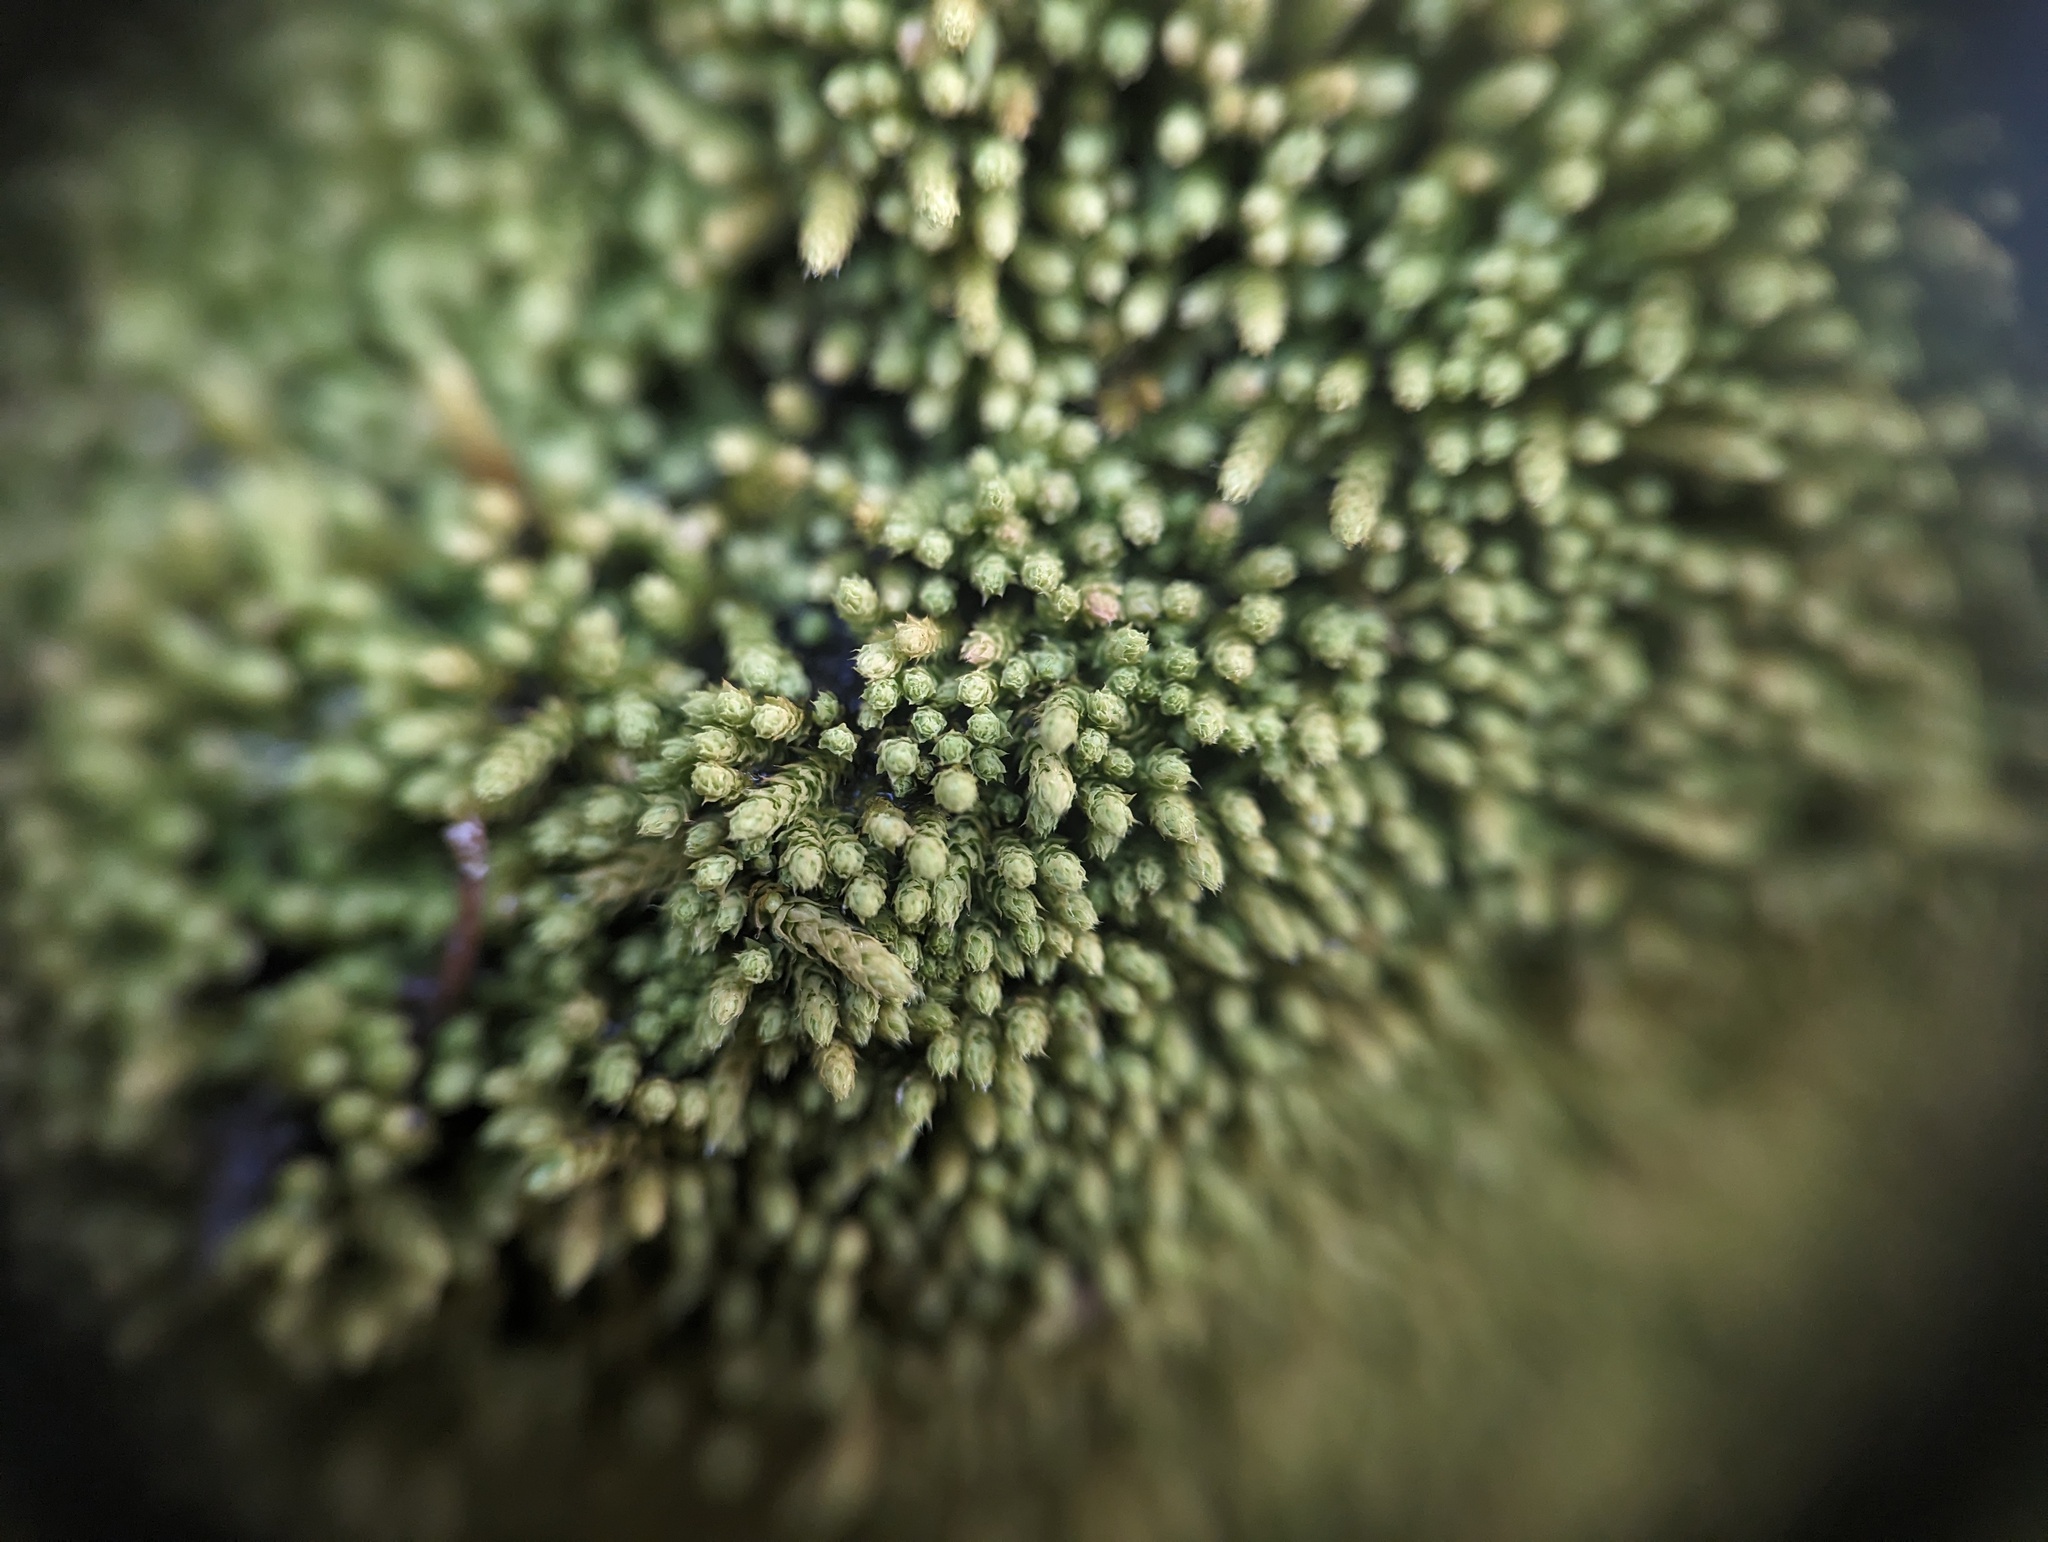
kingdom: Plantae
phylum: Bryophyta
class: Bryopsida
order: Hypnales
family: Brachytheciaceae
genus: Claopodium
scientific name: Claopodium rostratum
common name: Yellow yarn moss
